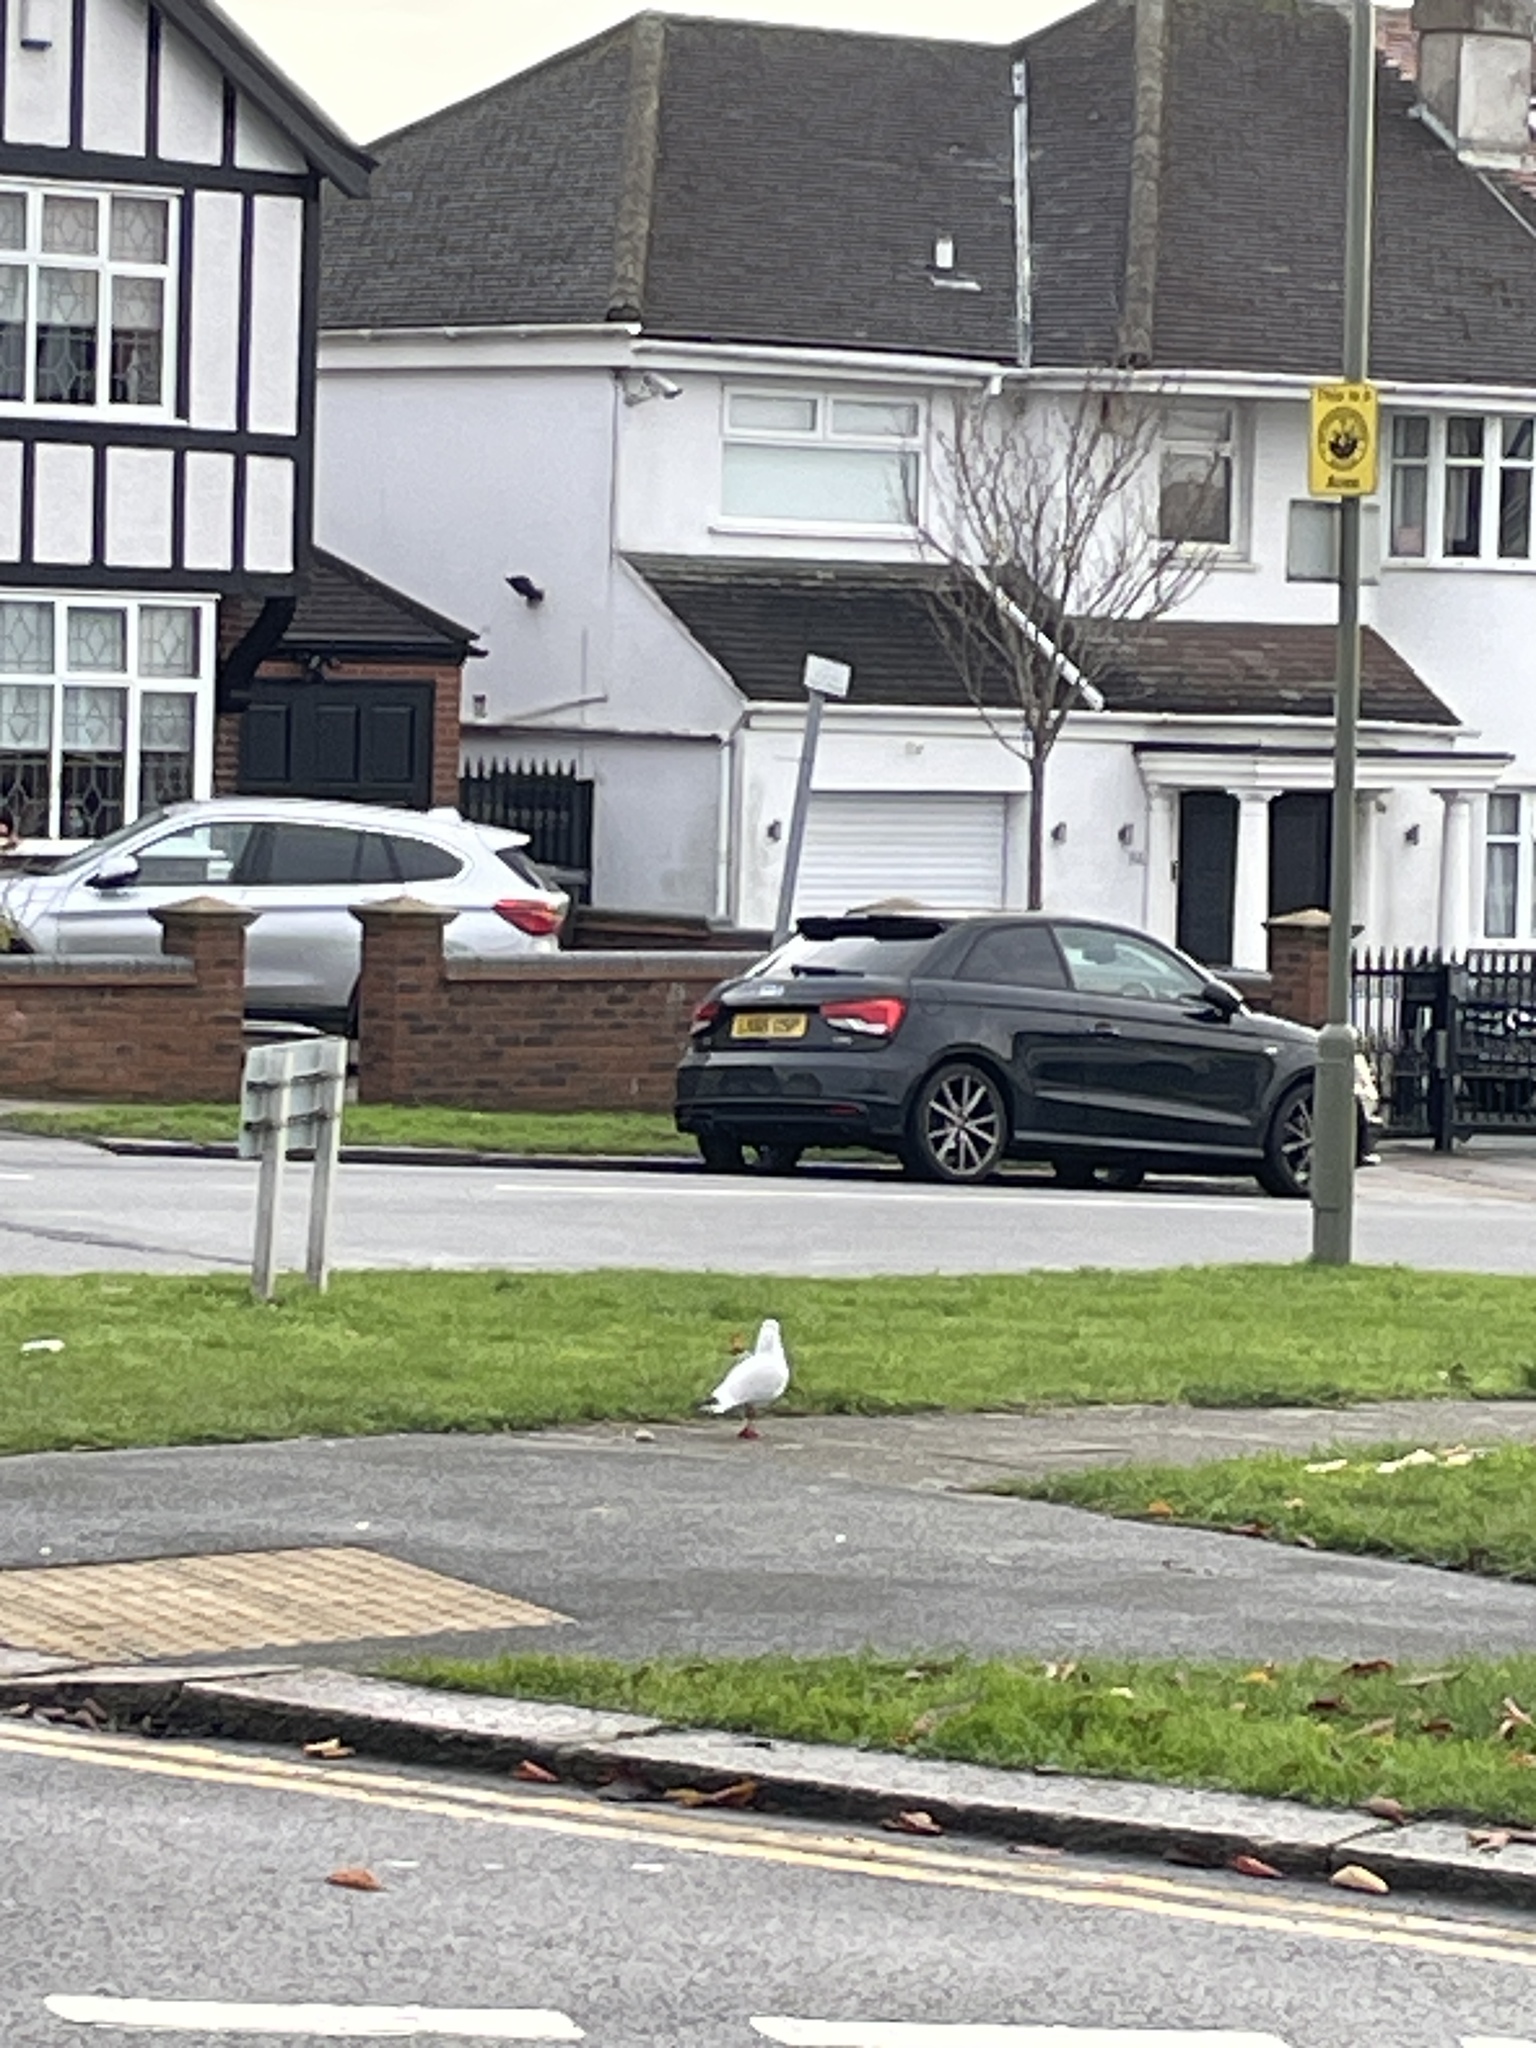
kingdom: Animalia
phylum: Chordata
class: Aves
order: Charadriiformes
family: Laridae
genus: Chroicocephalus
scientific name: Chroicocephalus ridibundus
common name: Black-headed gull
